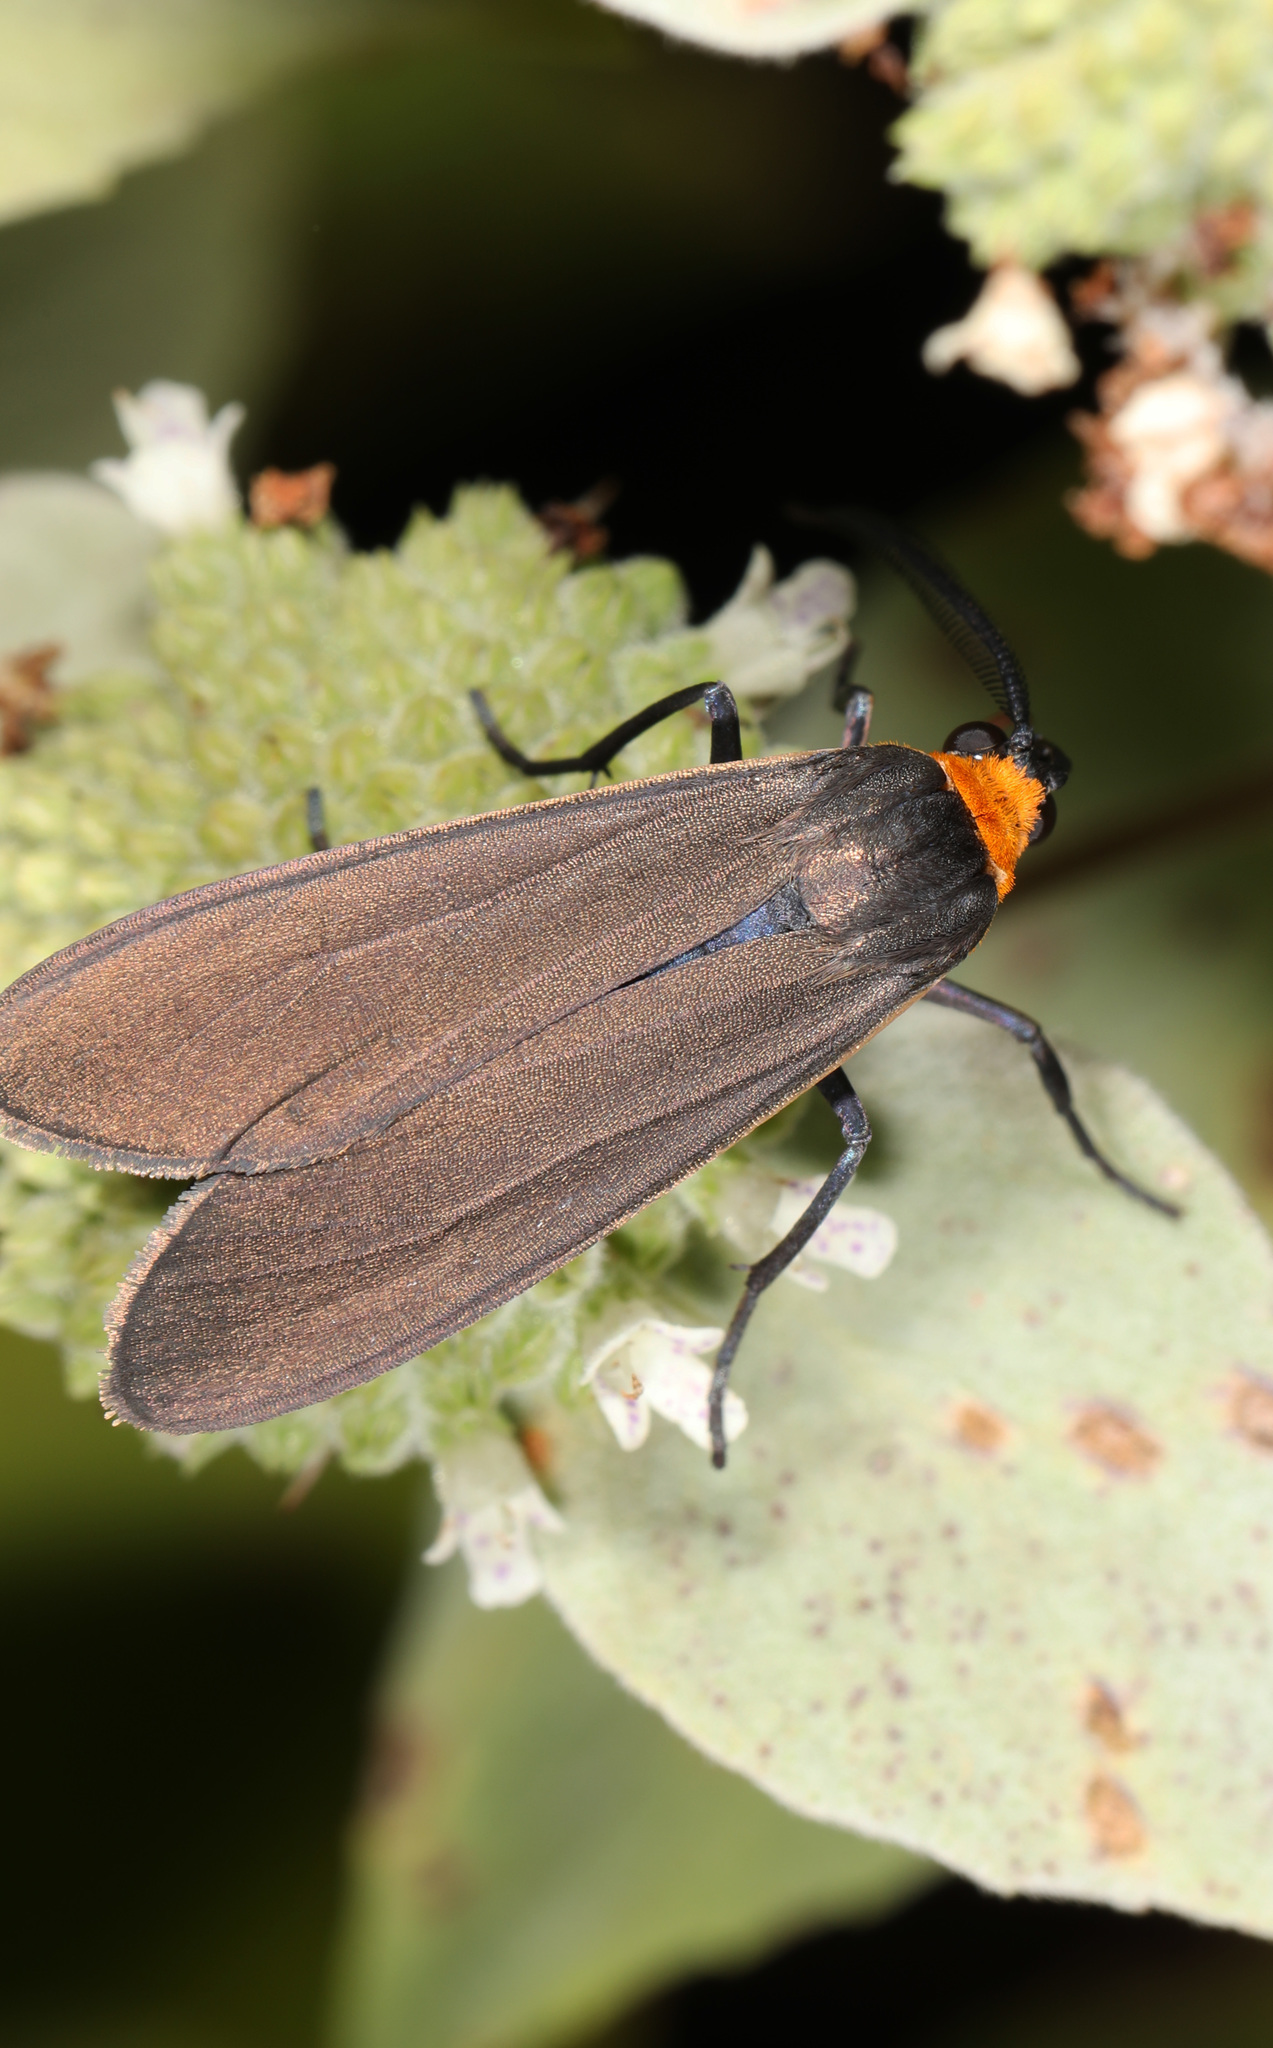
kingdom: Animalia
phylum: Arthropoda
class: Insecta
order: Lepidoptera
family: Erebidae
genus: Cisseps
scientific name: Cisseps fulvicollis
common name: Yellow-collared scape moth
